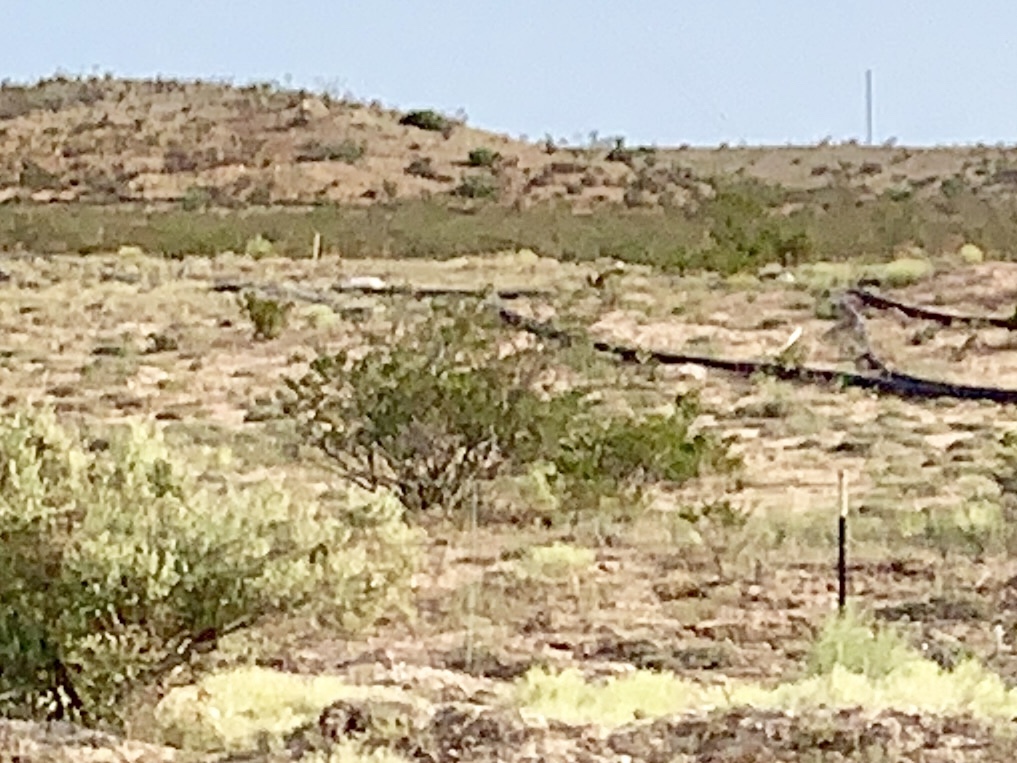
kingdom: Plantae
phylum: Tracheophyta
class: Magnoliopsida
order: Zygophyllales
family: Zygophyllaceae
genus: Larrea
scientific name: Larrea tridentata
